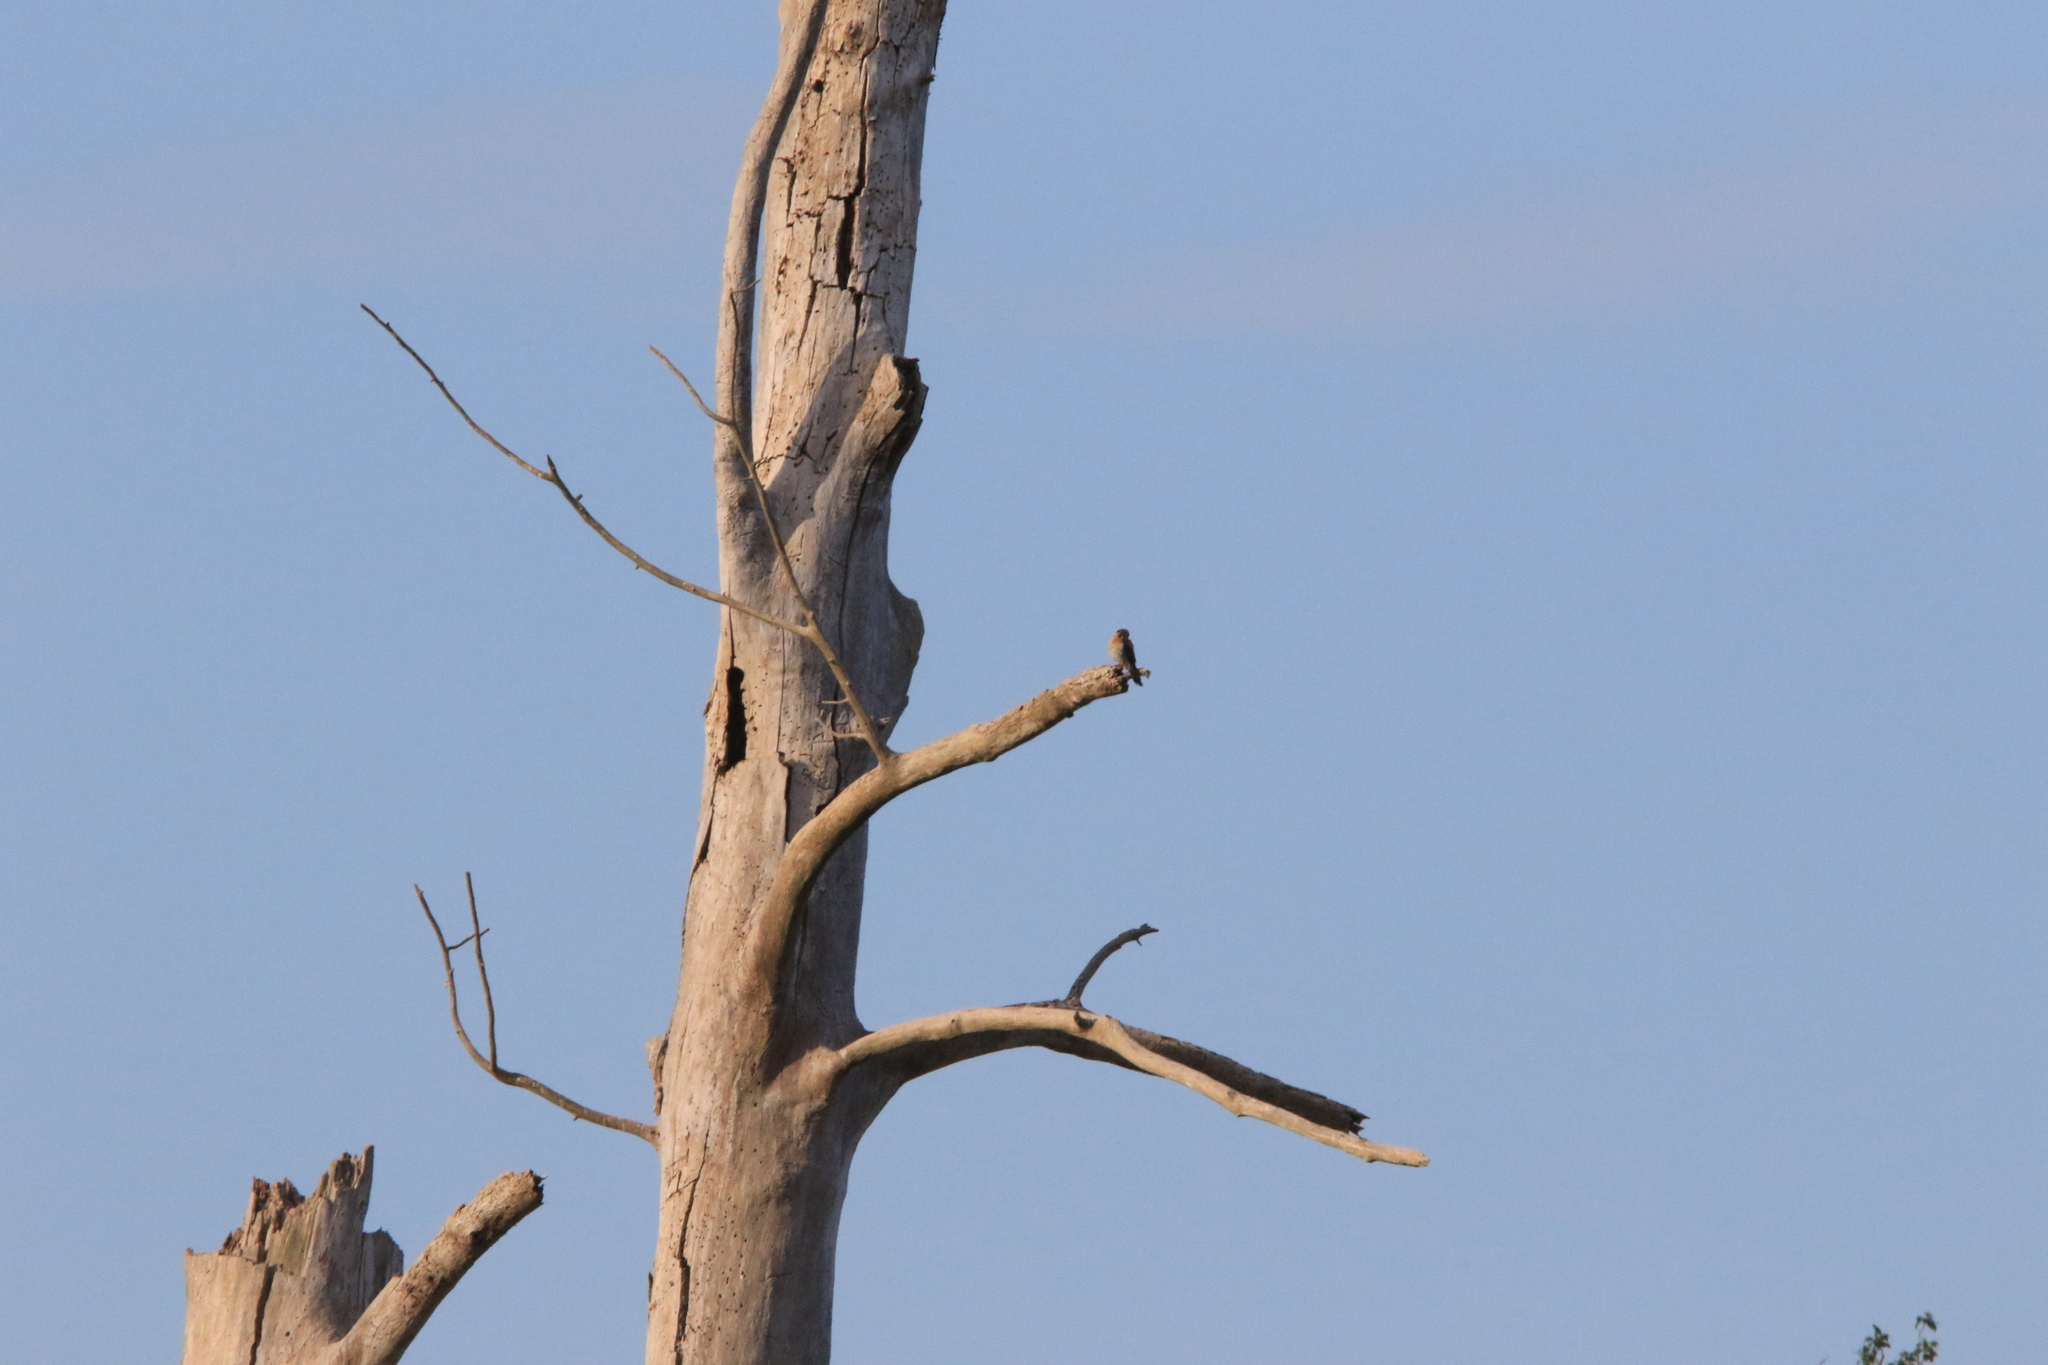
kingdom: Animalia
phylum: Chordata
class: Aves
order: Falconiformes
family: Falconidae
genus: Falco
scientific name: Falco sparverius
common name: American kestrel
